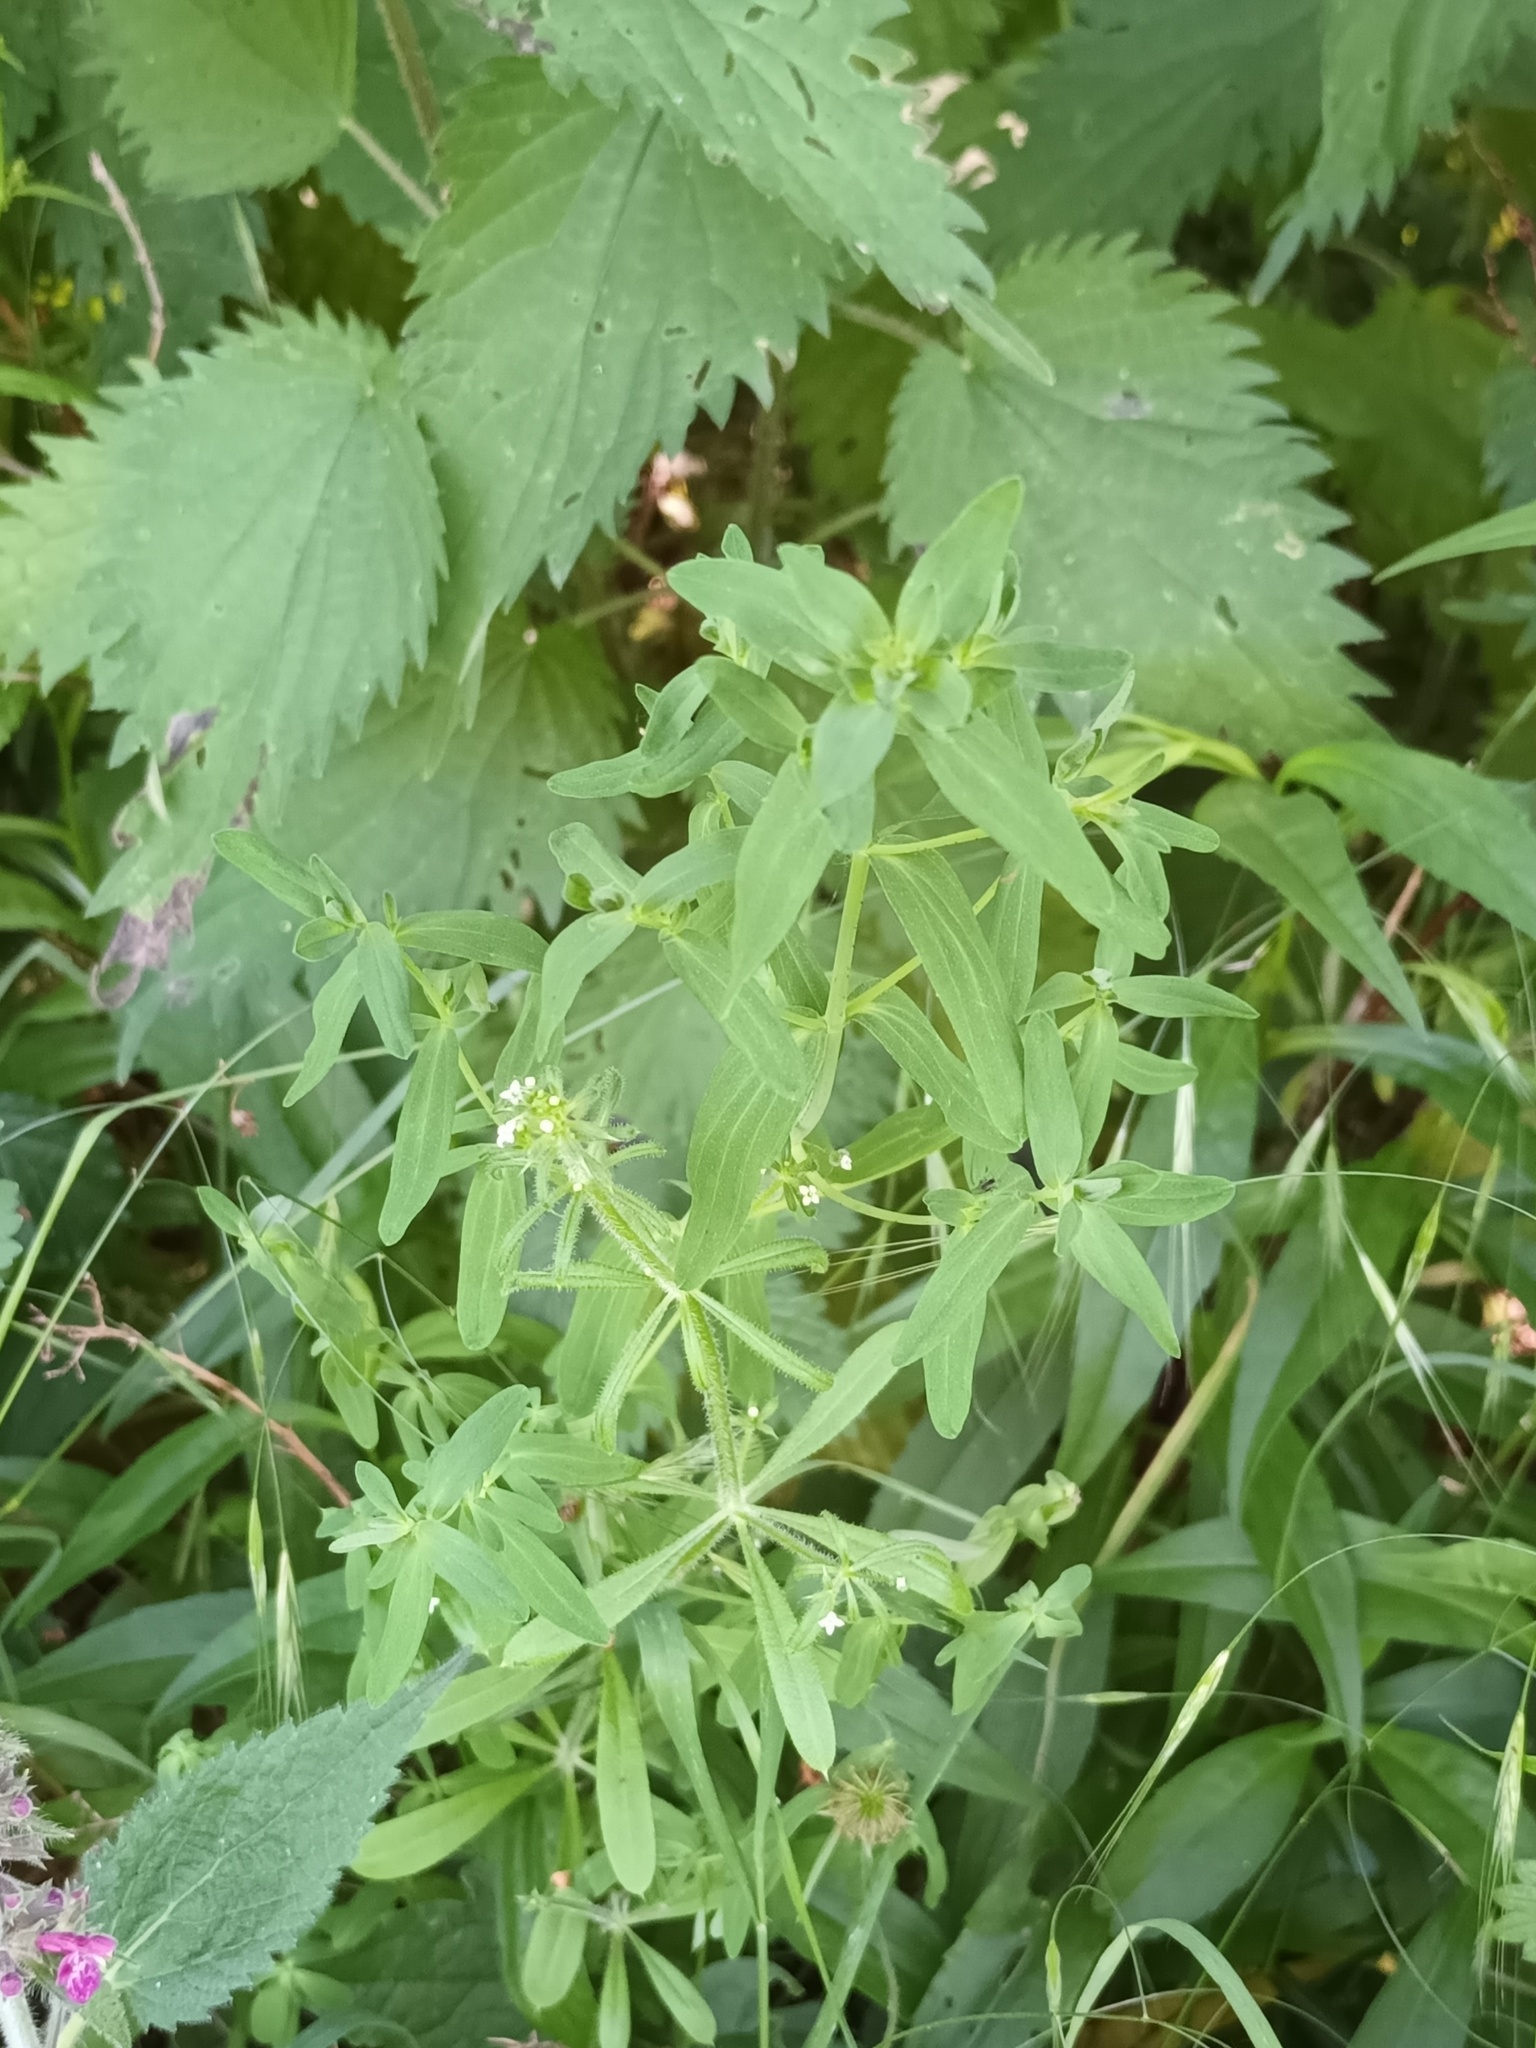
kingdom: Plantae
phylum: Tracheophyta
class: Magnoliopsida
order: Gentianales
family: Rubiaceae
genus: Galium
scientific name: Galium aparine
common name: Cleavers
